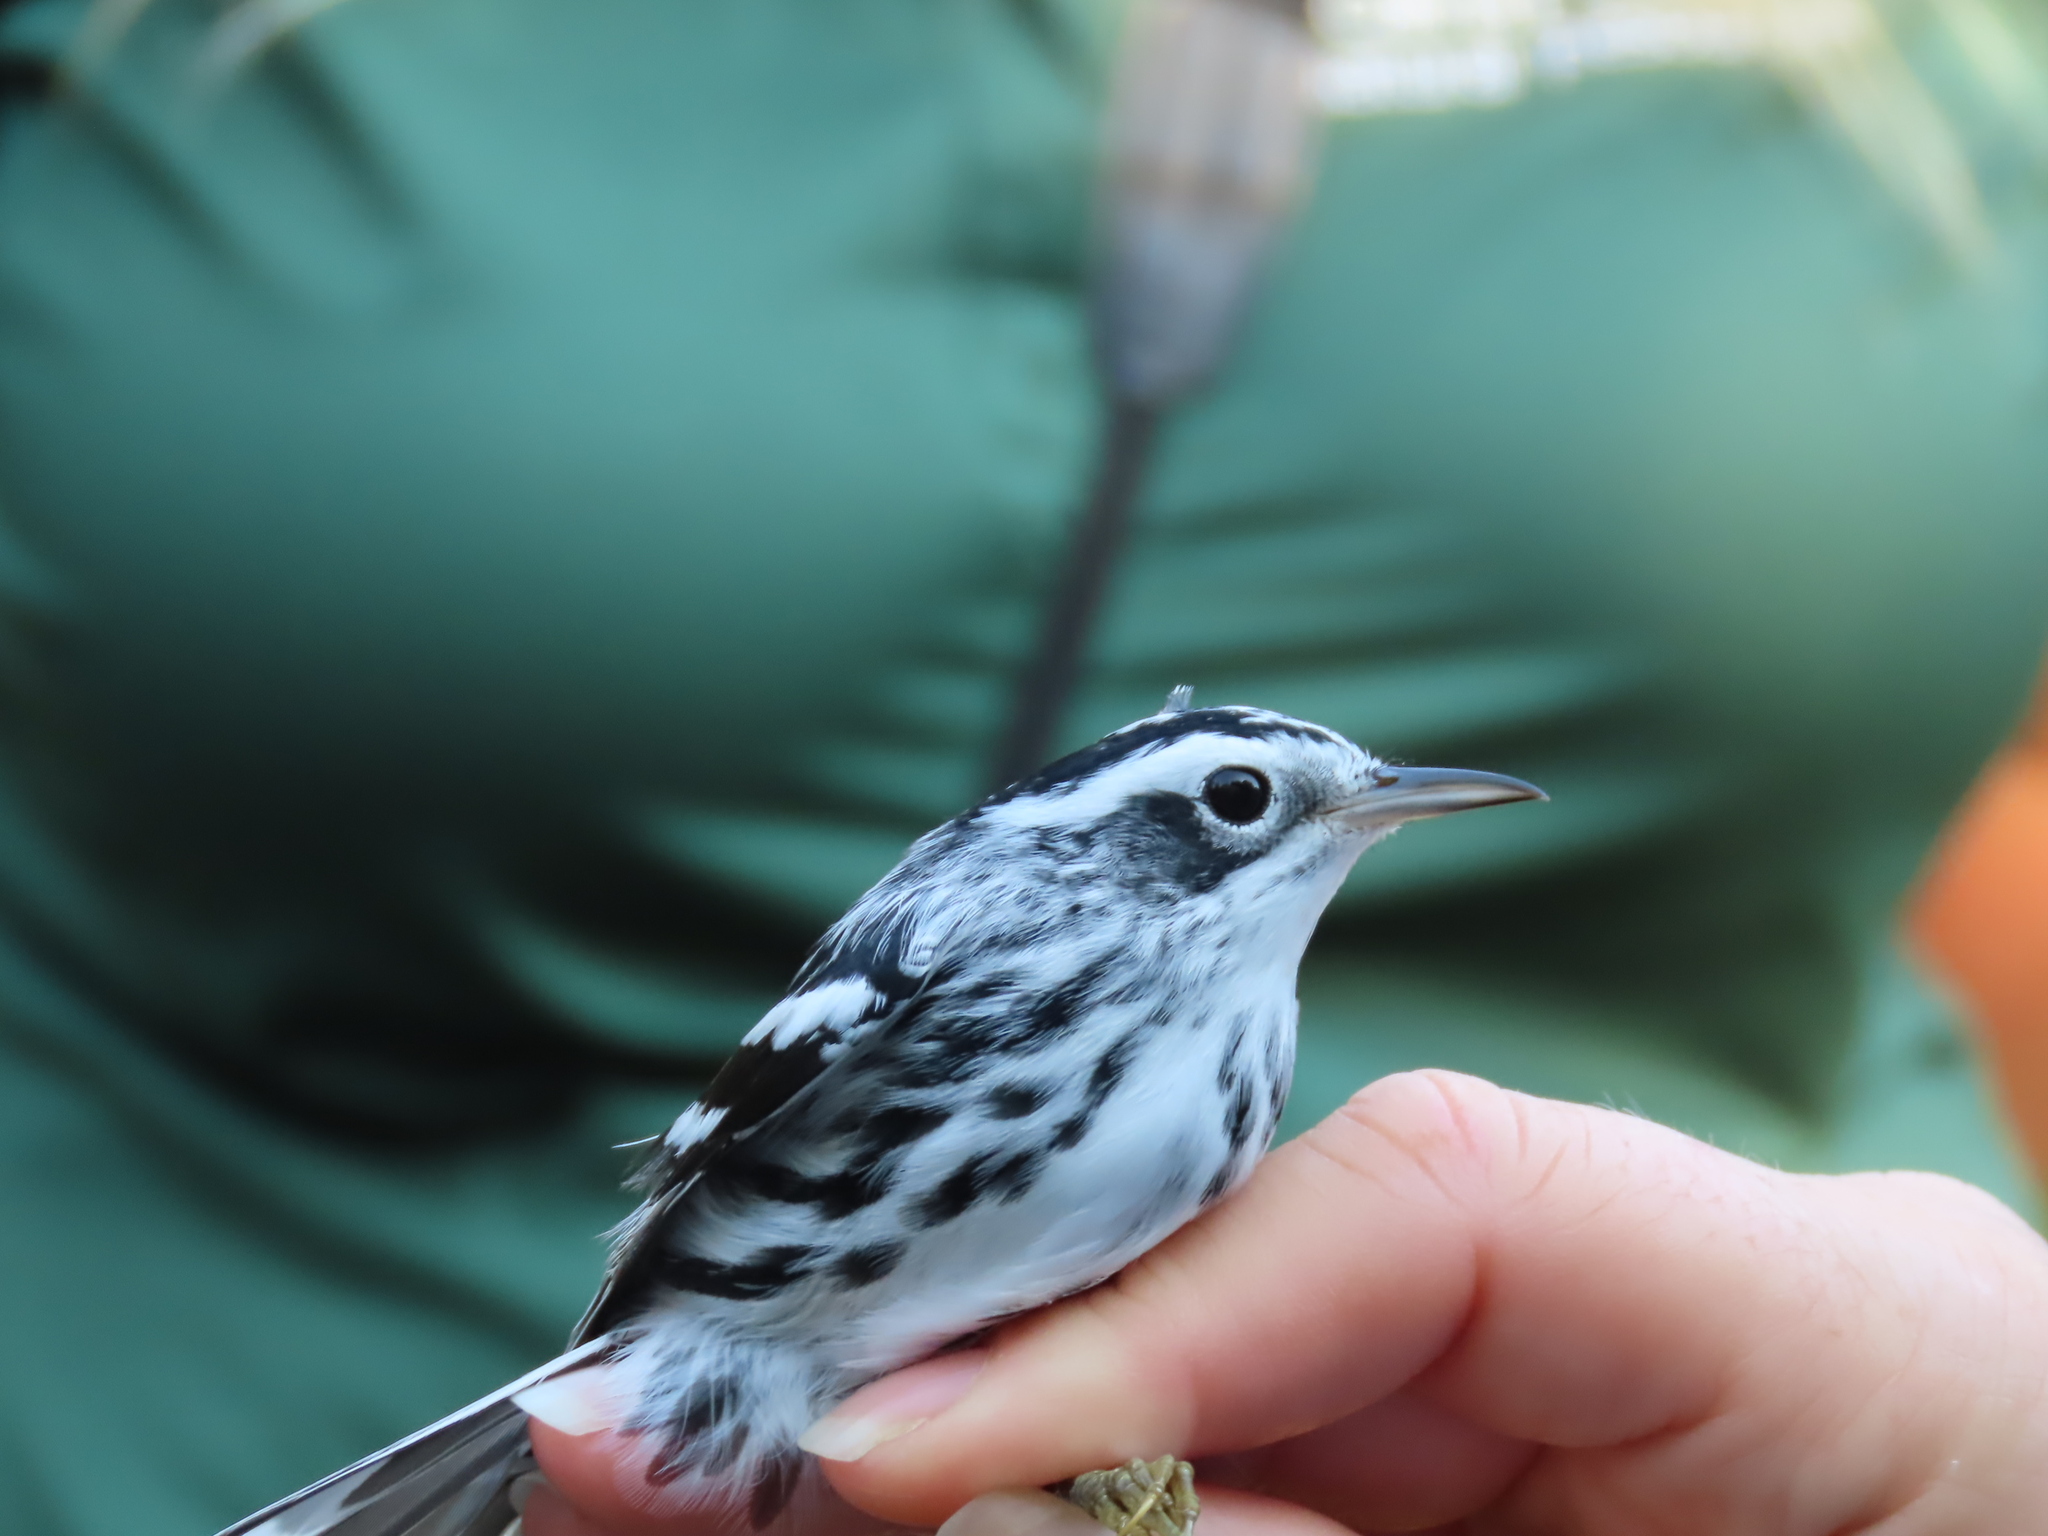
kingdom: Animalia
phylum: Chordata
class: Aves
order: Passeriformes
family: Parulidae
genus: Mniotilta
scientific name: Mniotilta varia
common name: Black-and-white warbler
